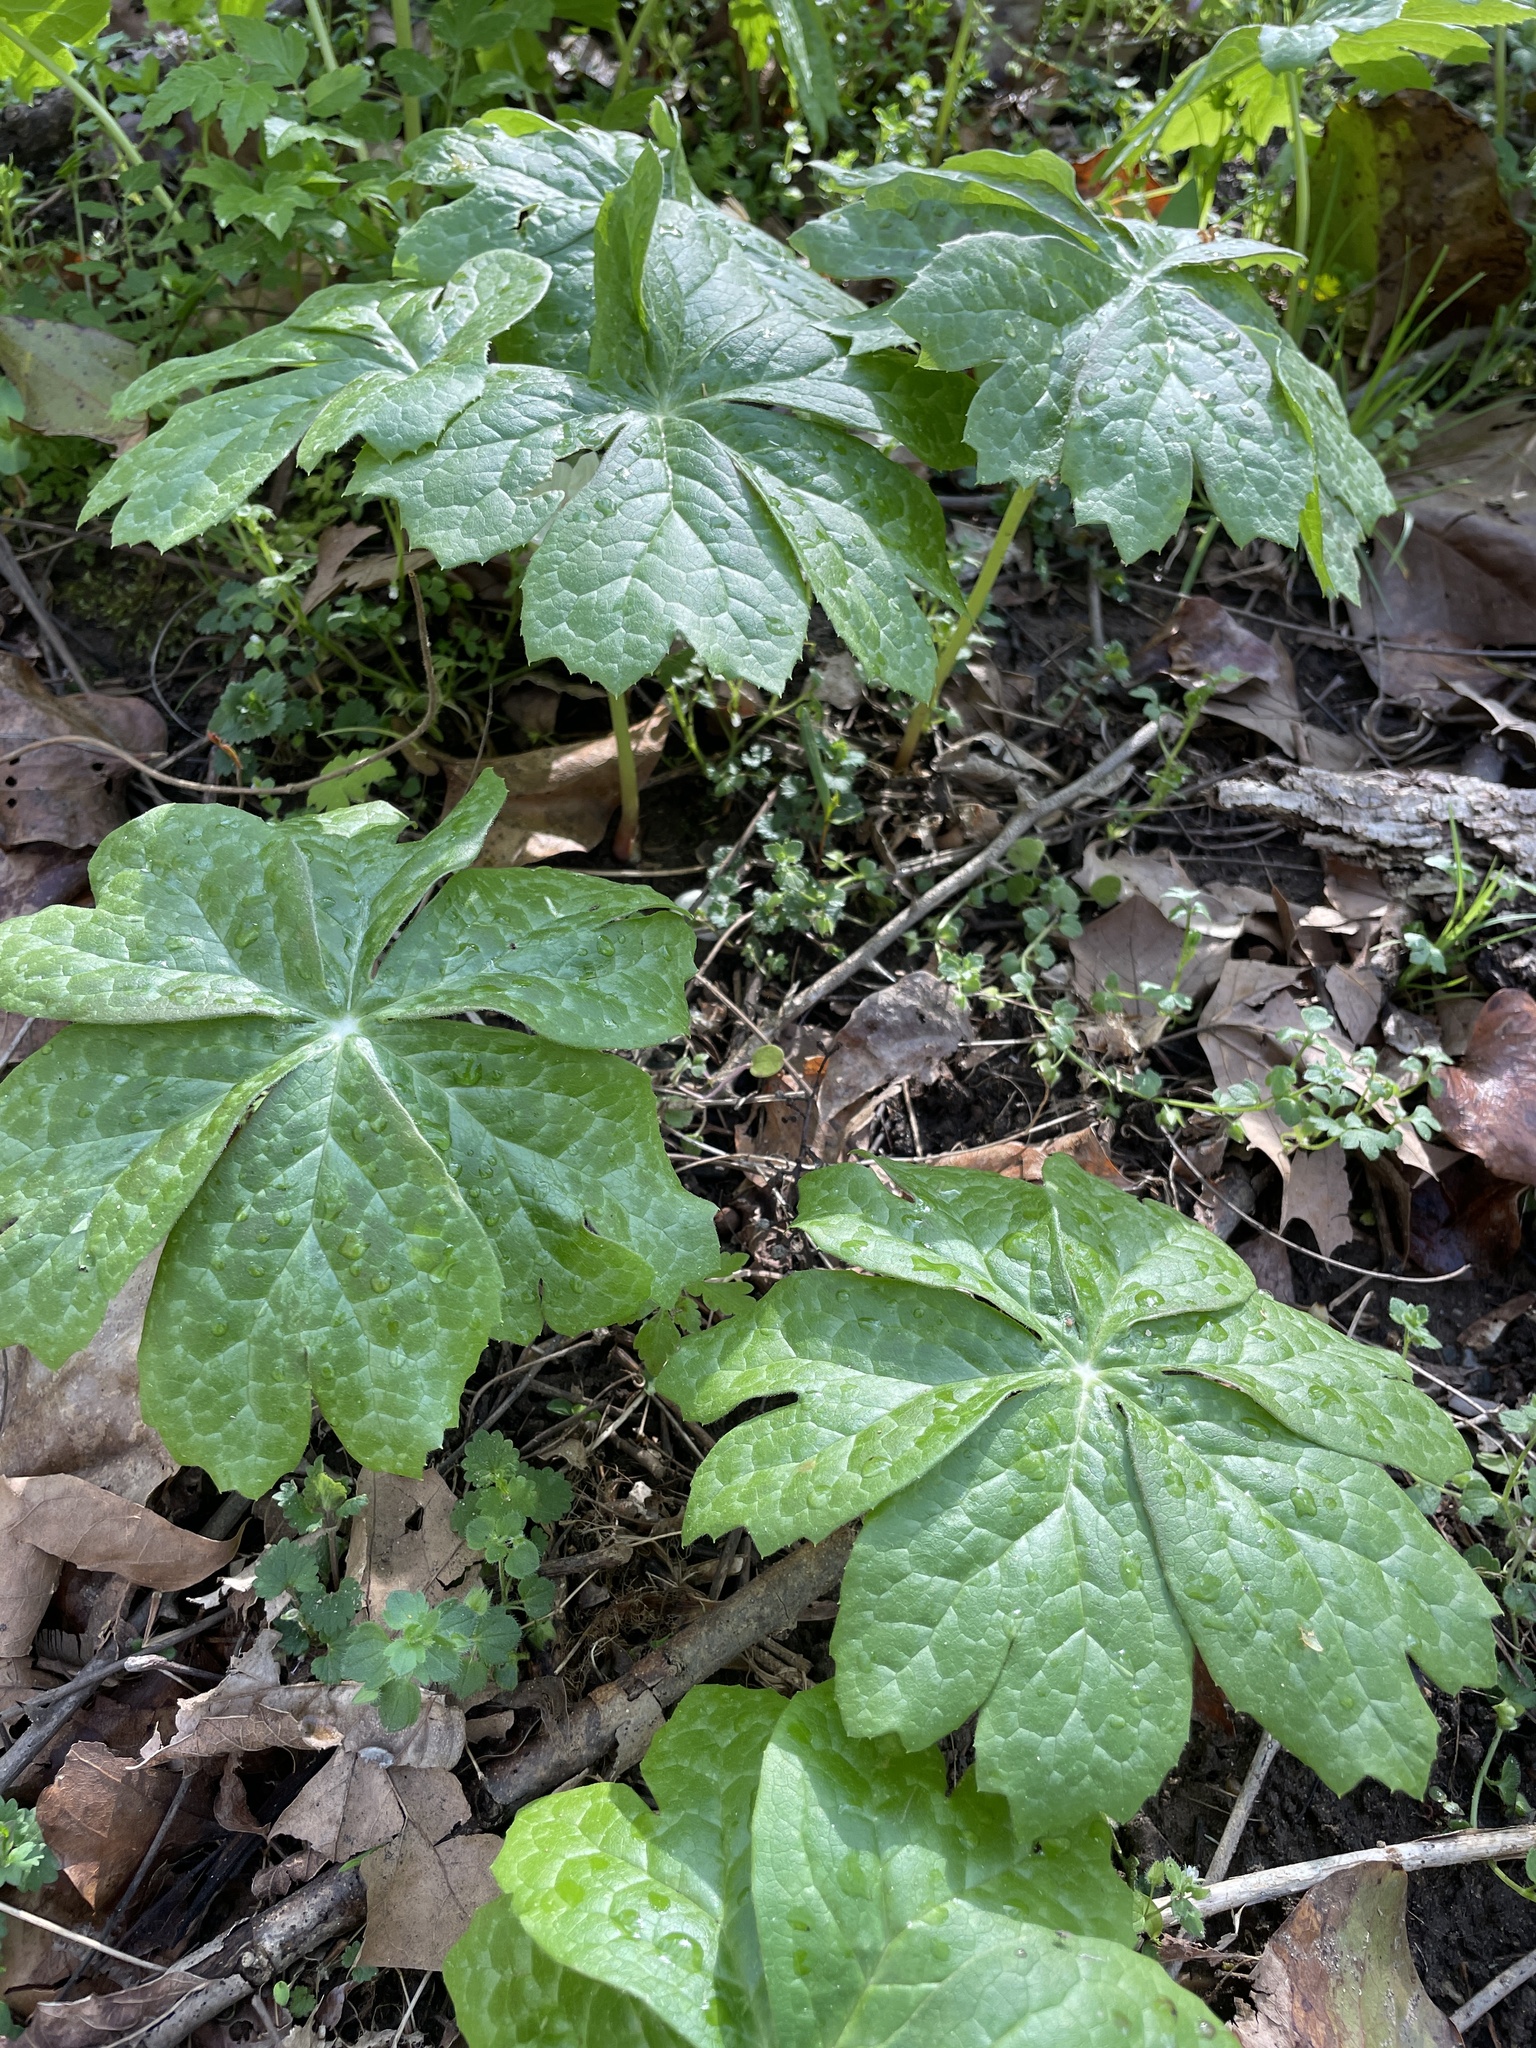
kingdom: Plantae
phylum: Tracheophyta
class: Magnoliopsida
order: Ranunculales
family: Berberidaceae
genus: Podophyllum
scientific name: Podophyllum peltatum
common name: Wild mandrake
